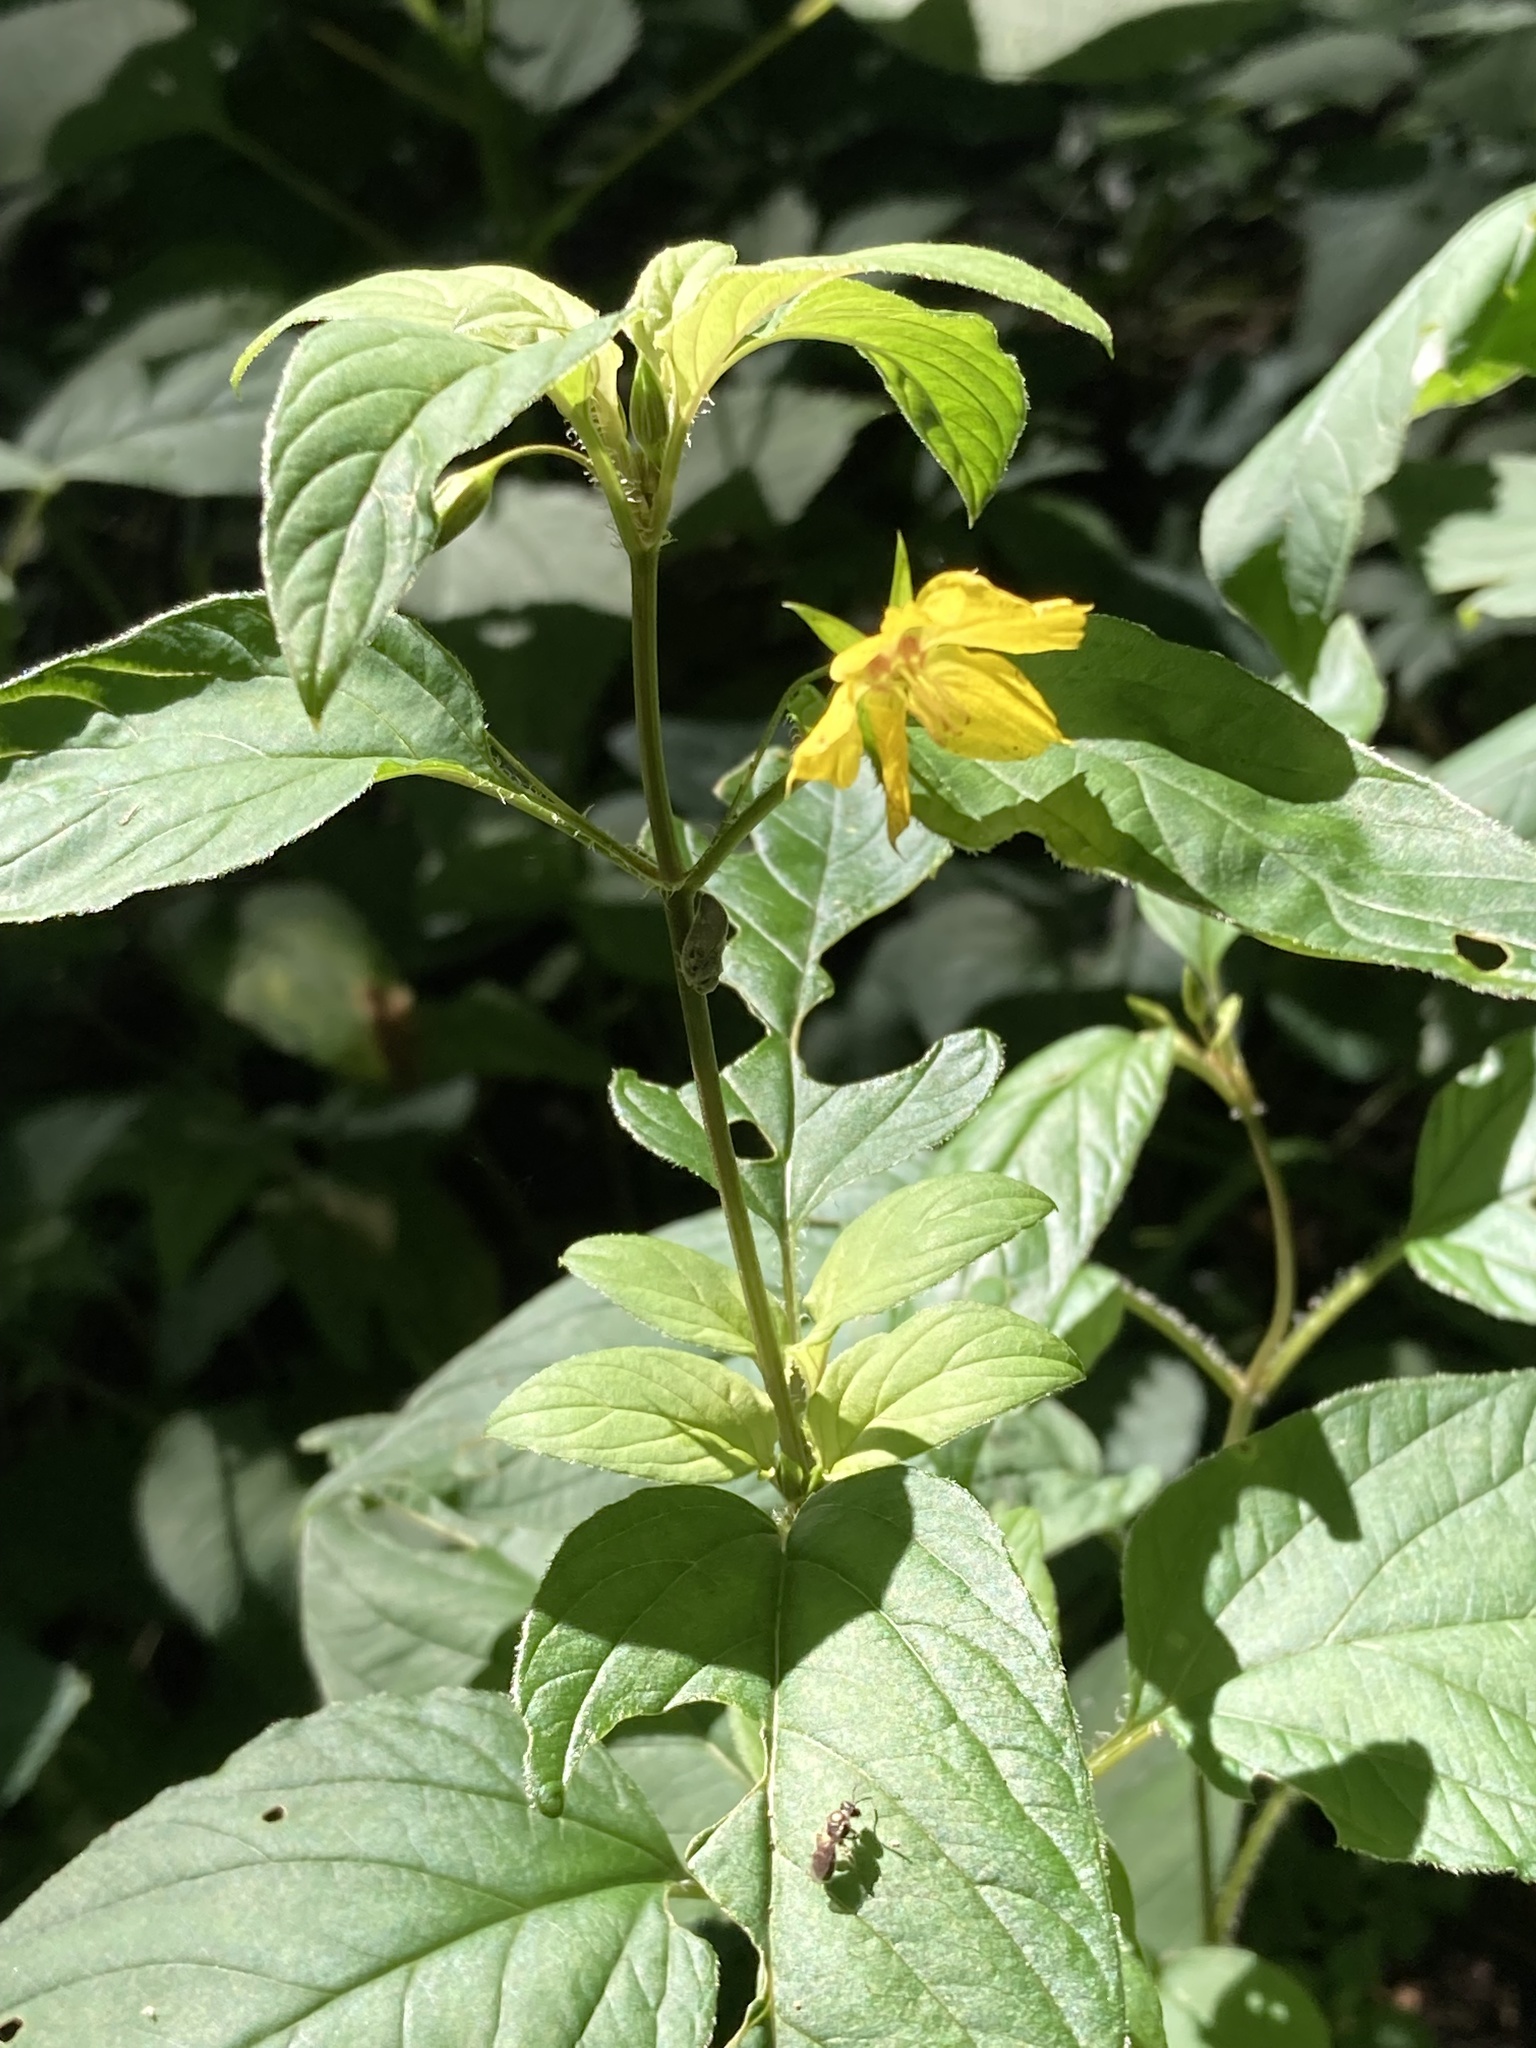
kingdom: Plantae
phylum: Tracheophyta
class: Magnoliopsida
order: Ericales
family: Primulaceae
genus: Lysimachia
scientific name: Lysimachia ciliata
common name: Fringed loosestrife
